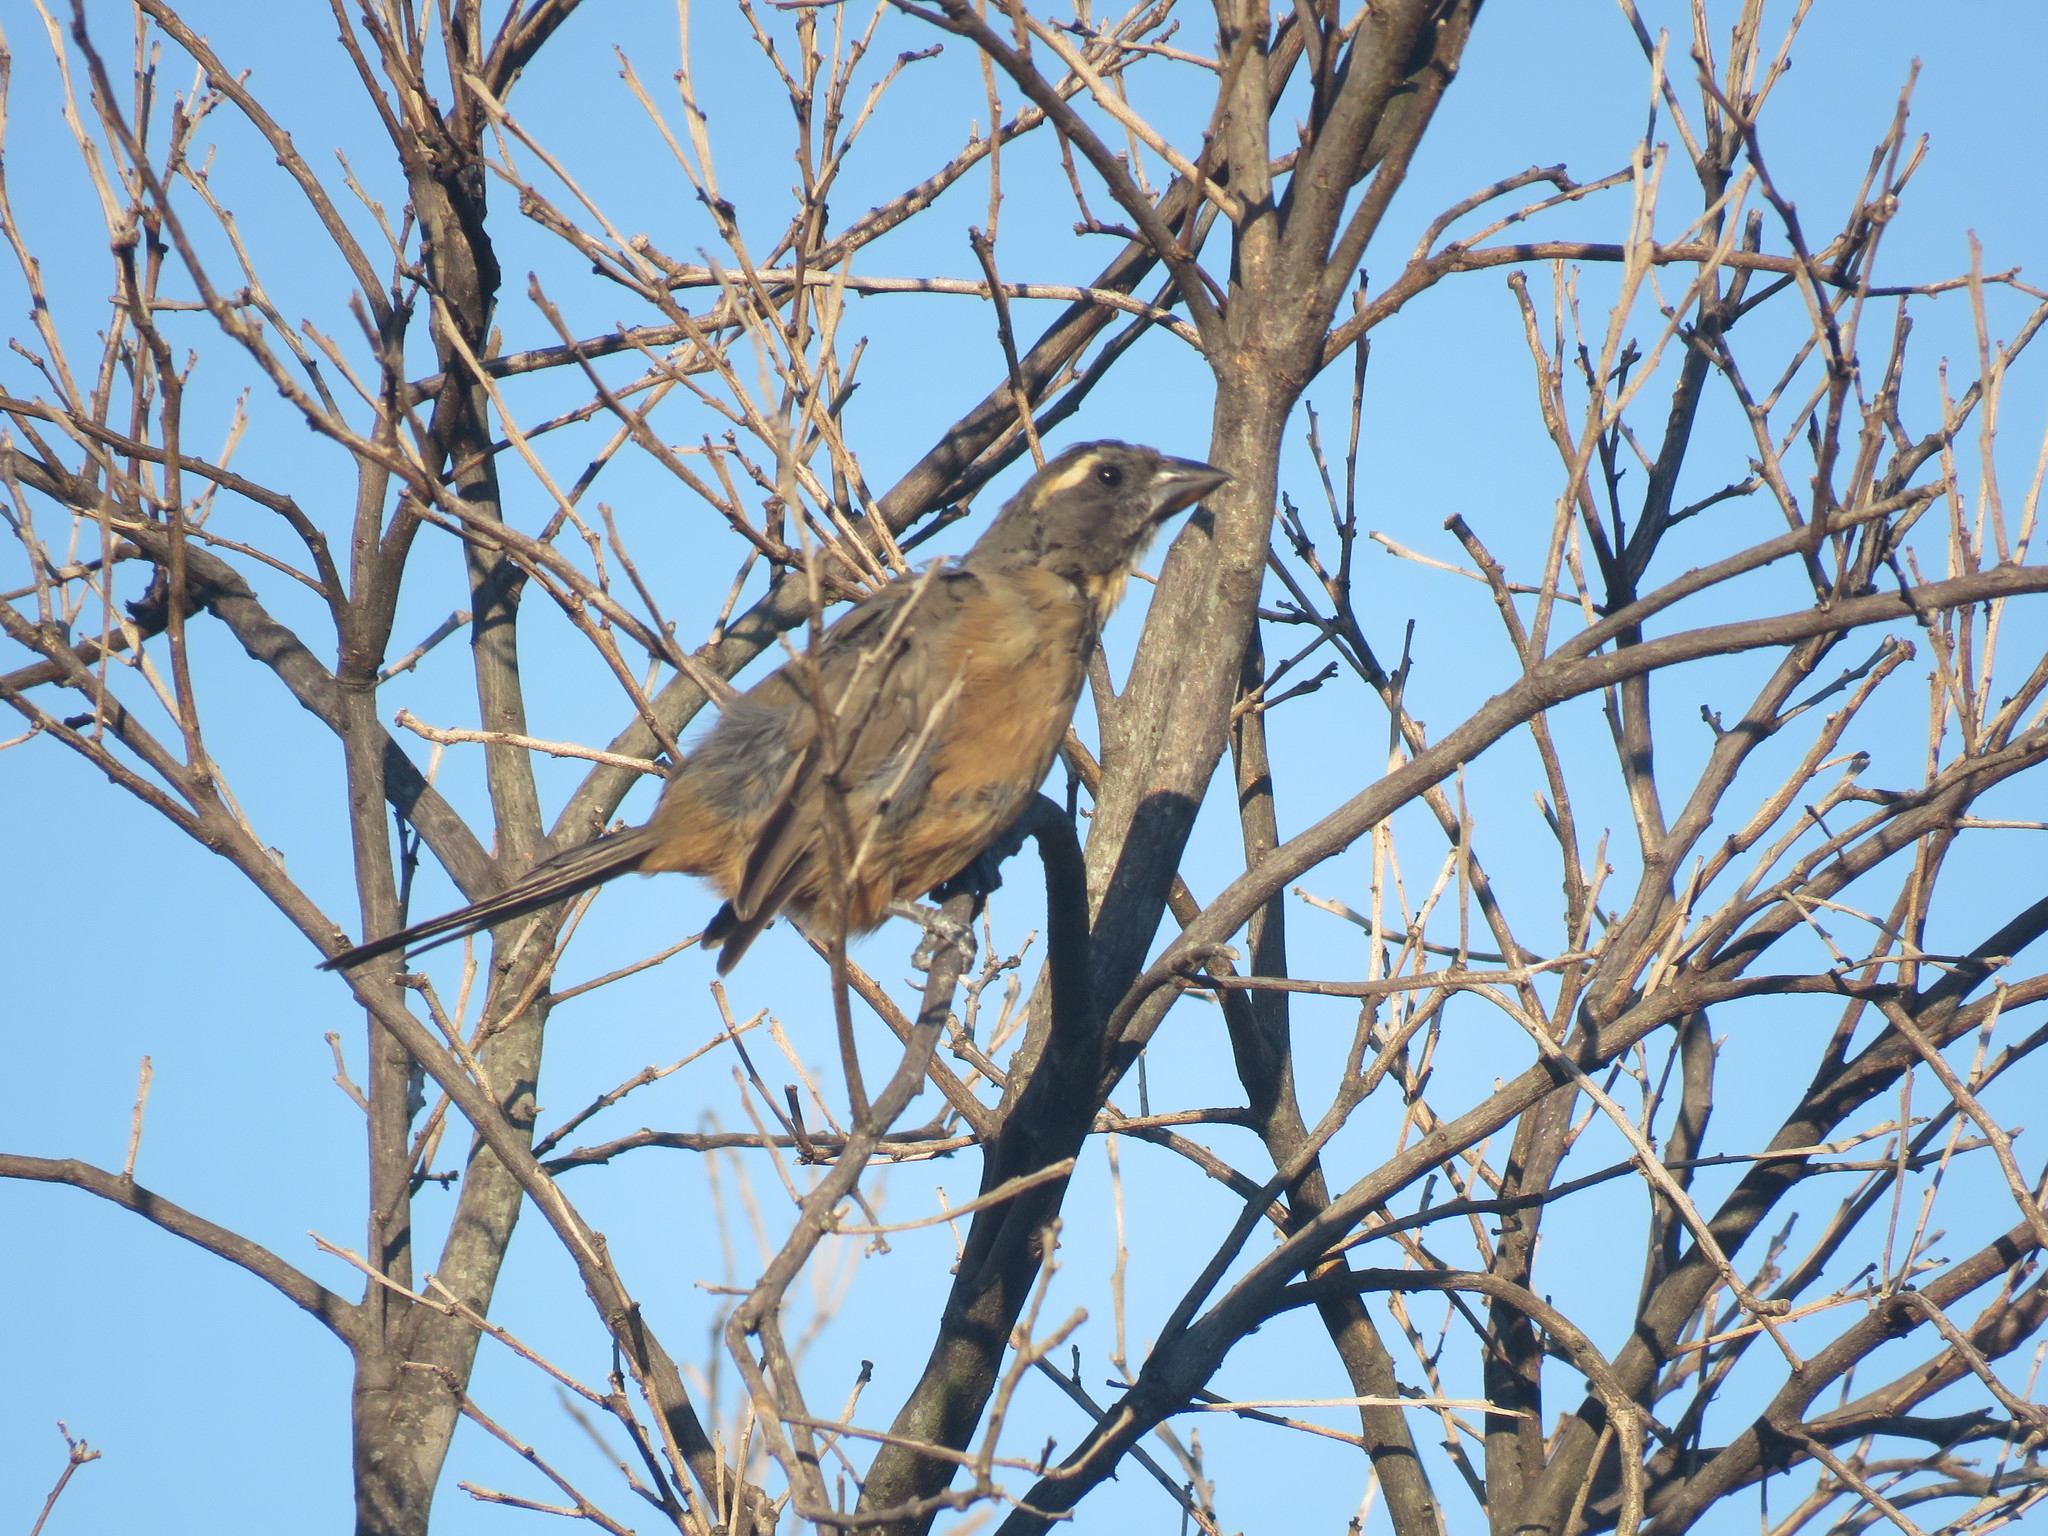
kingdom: Animalia
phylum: Chordata
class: Aves
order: Passeriformes
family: Thraupidae
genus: Saltator
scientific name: Saltator aurantiirostris
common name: Golden-billed saltator
